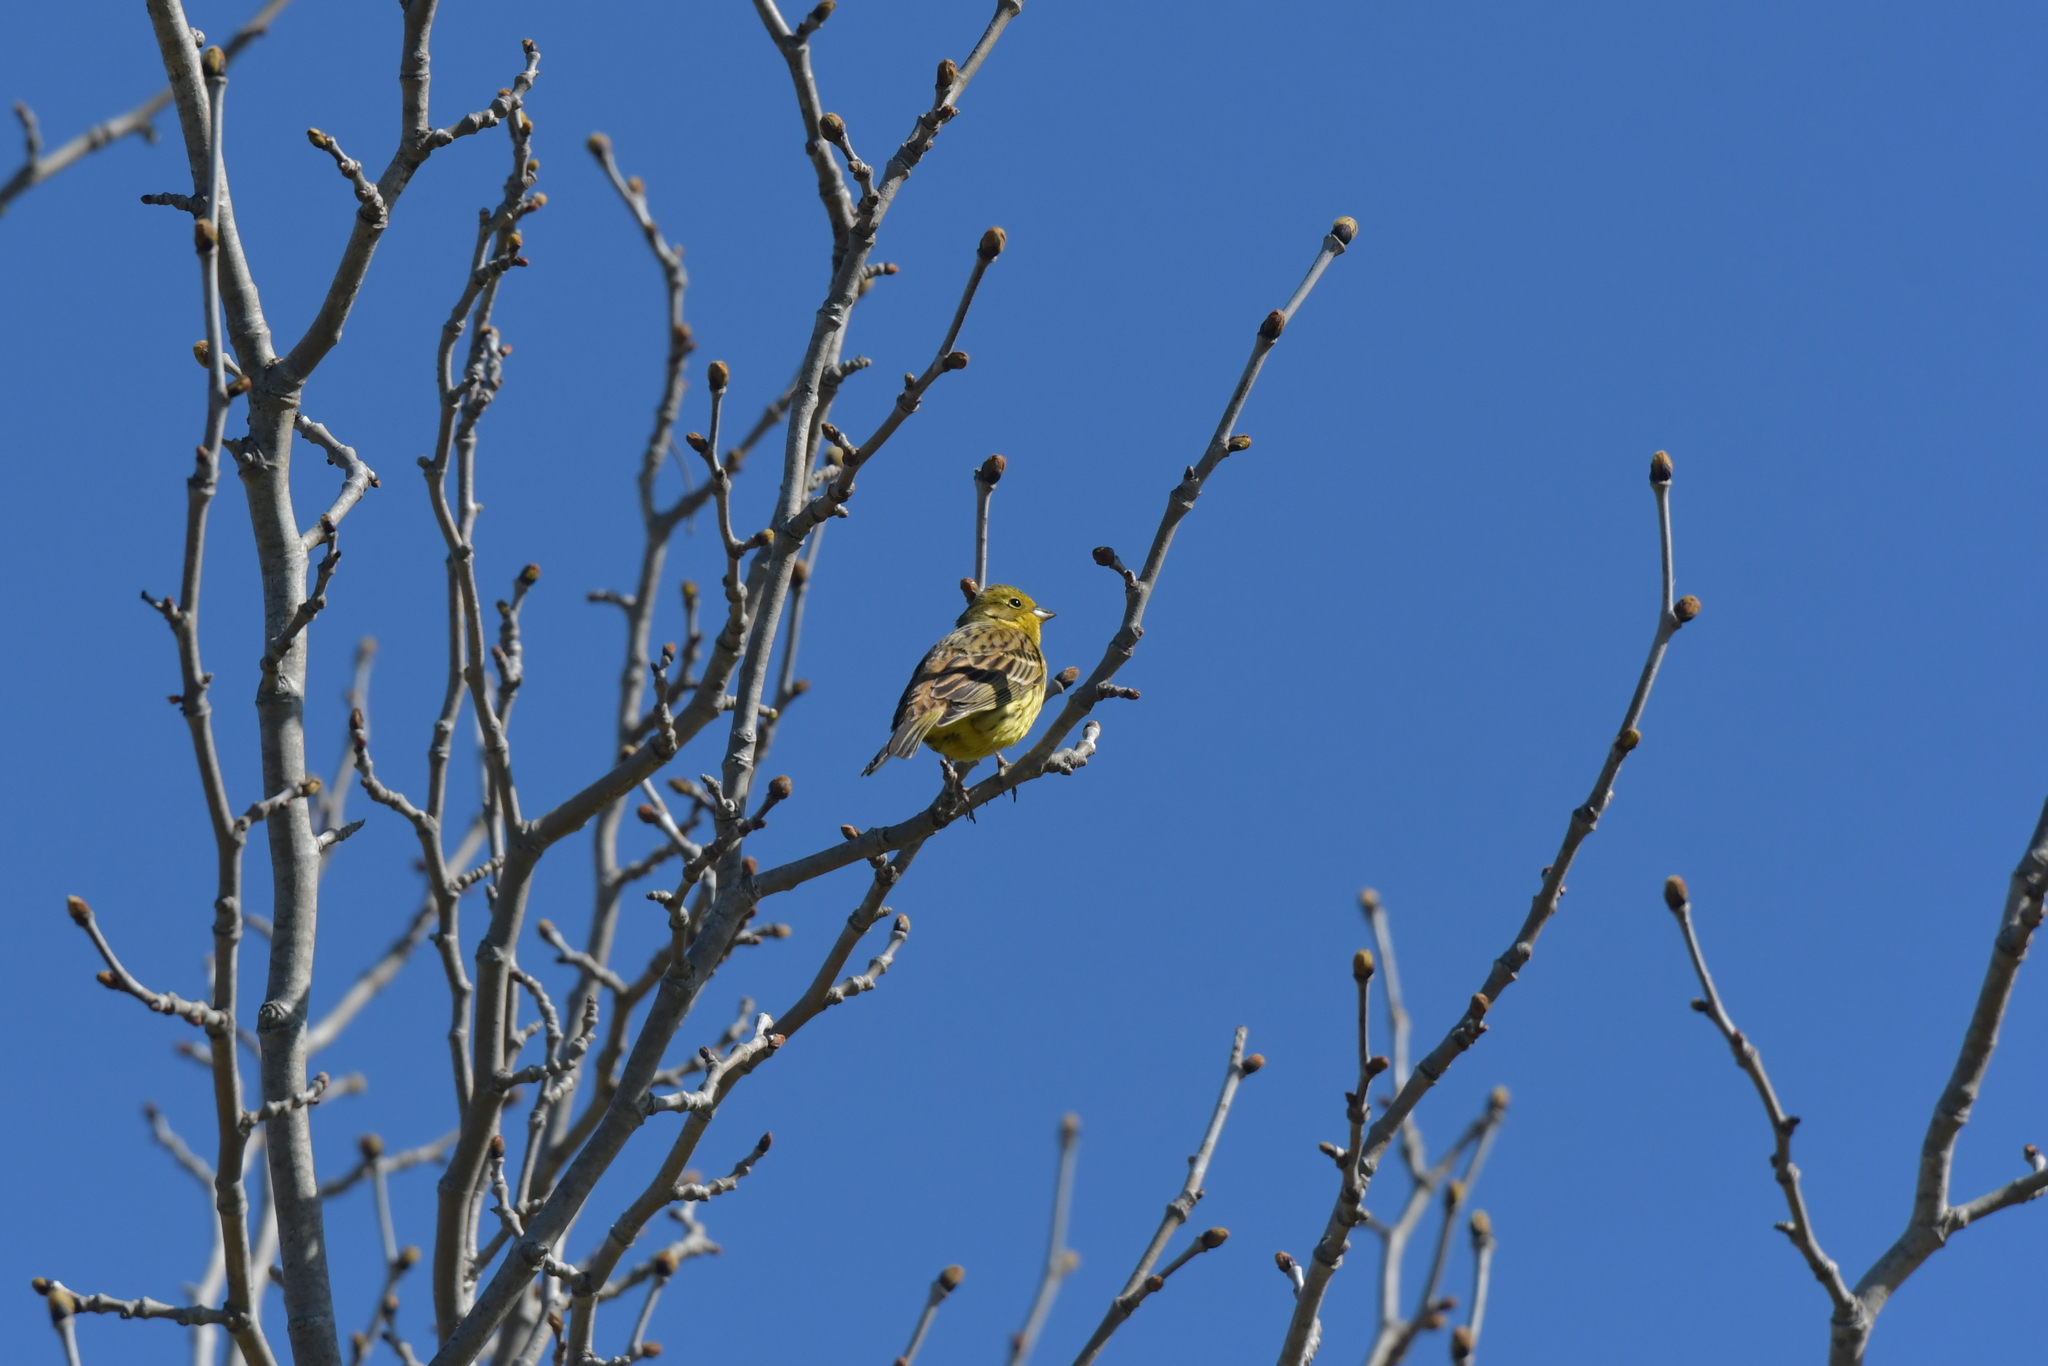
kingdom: Animalia
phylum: Chordata
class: Aves
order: Passeriformes
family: Emberizidae
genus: Emberiza
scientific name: Emberiza citrinella
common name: Yellowhammer
